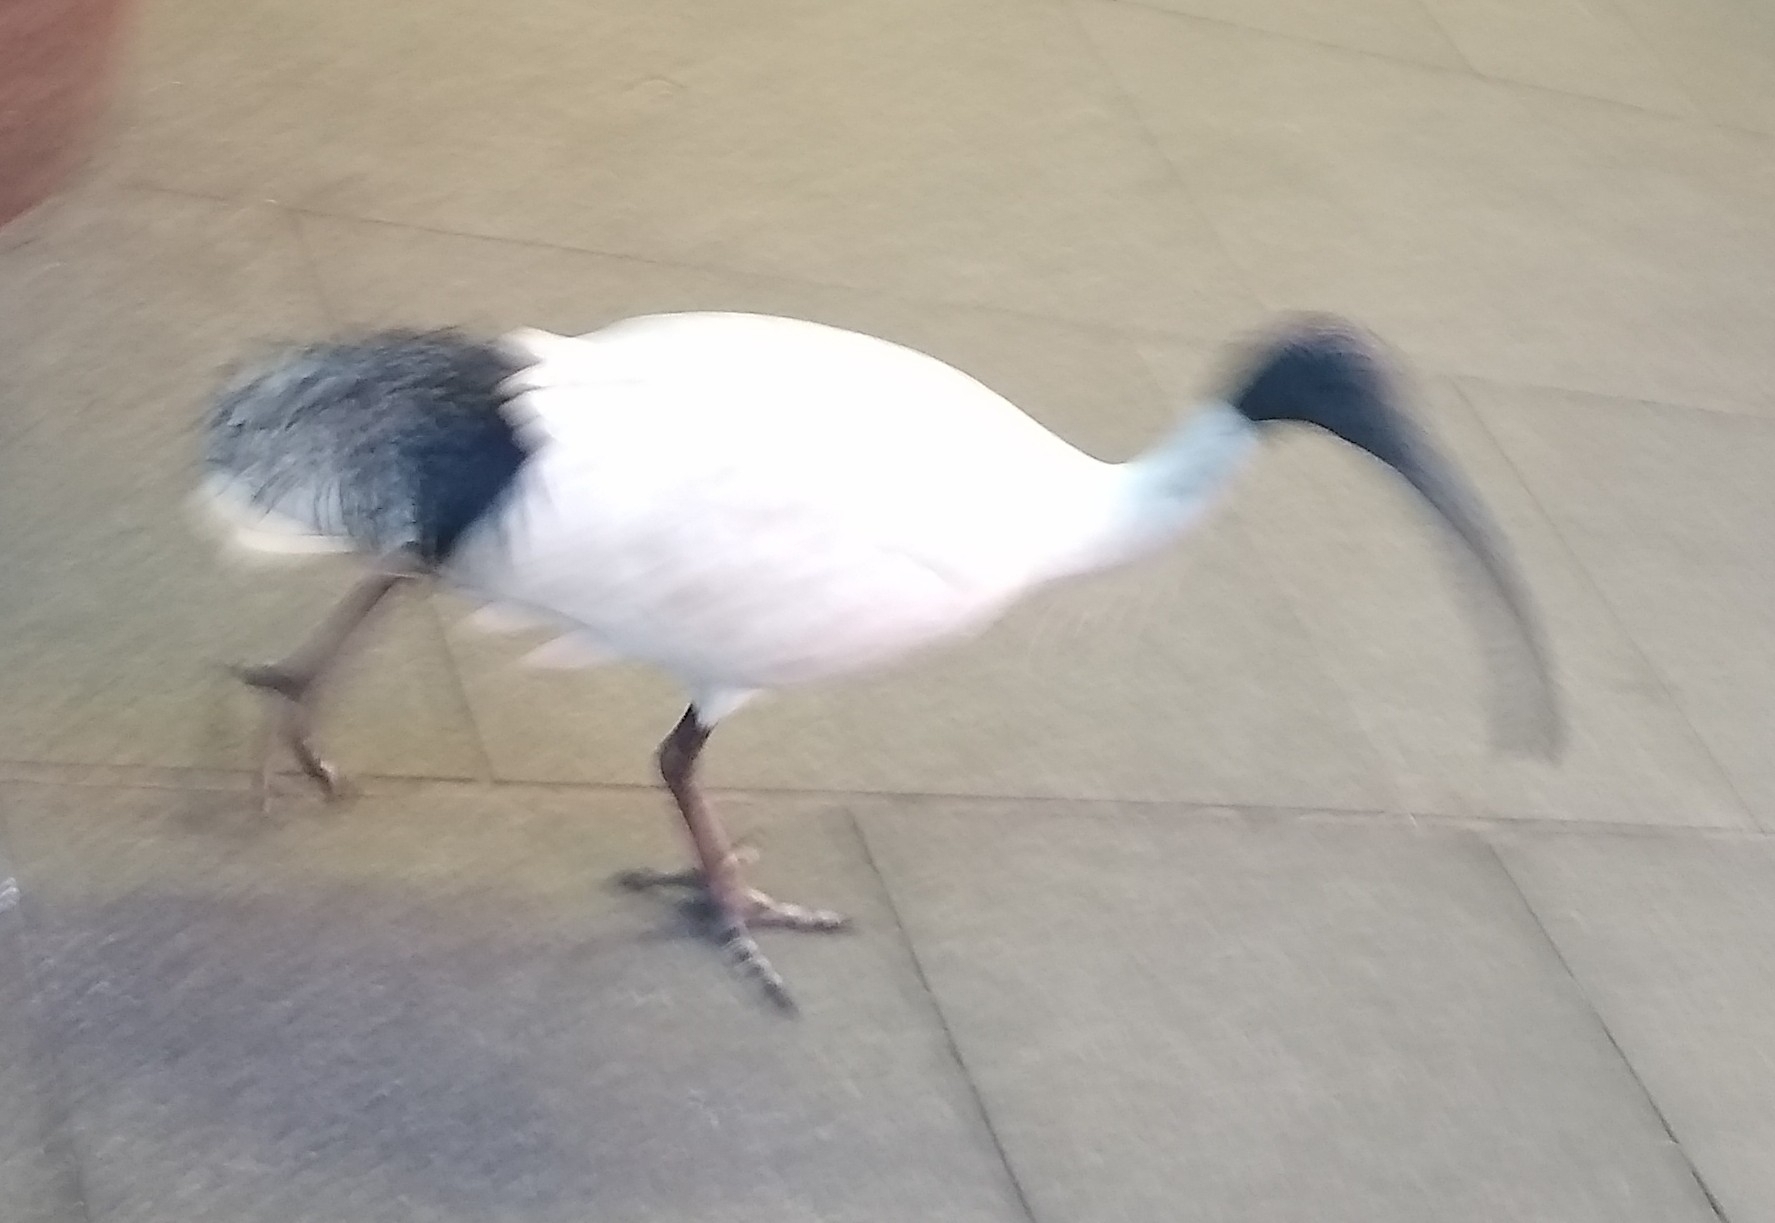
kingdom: Animalia
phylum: Chordata
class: Aves
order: Pelecaniformes
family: Threskiornithidae
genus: Threskiornis
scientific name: Threskiornis molucca
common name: Australian white ibis
